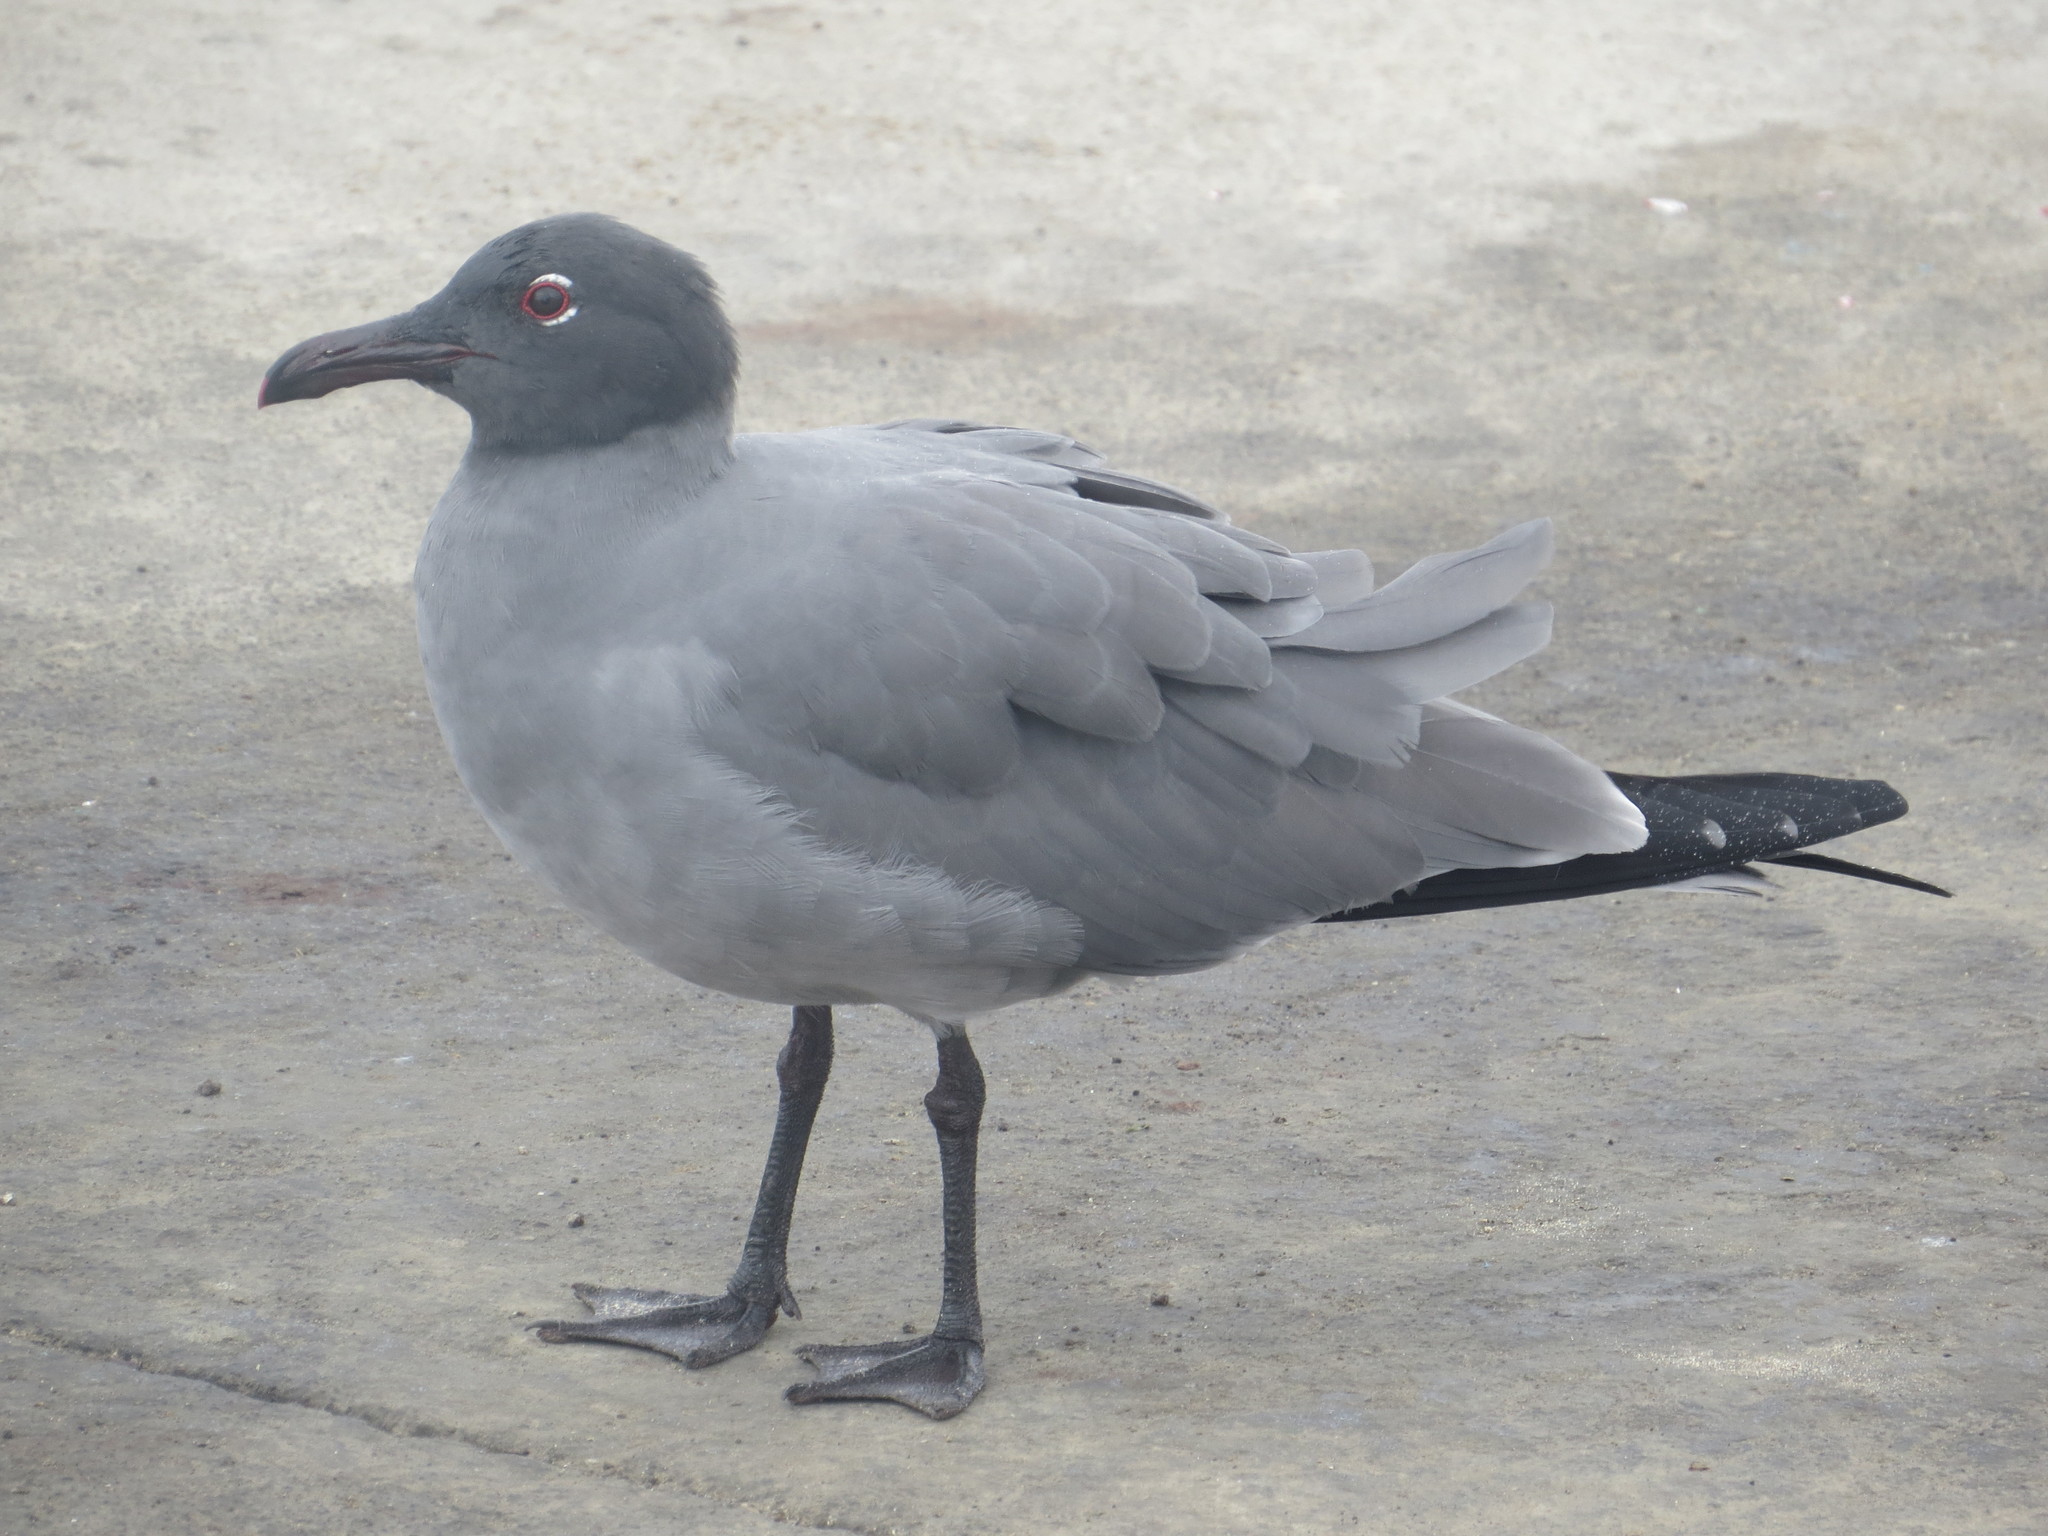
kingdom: Animalia
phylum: Chordata
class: Aves
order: Charadriiformes
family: Laridae
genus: Leucophaeus
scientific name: Leucophaeus fuliginosus
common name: Lava gull
